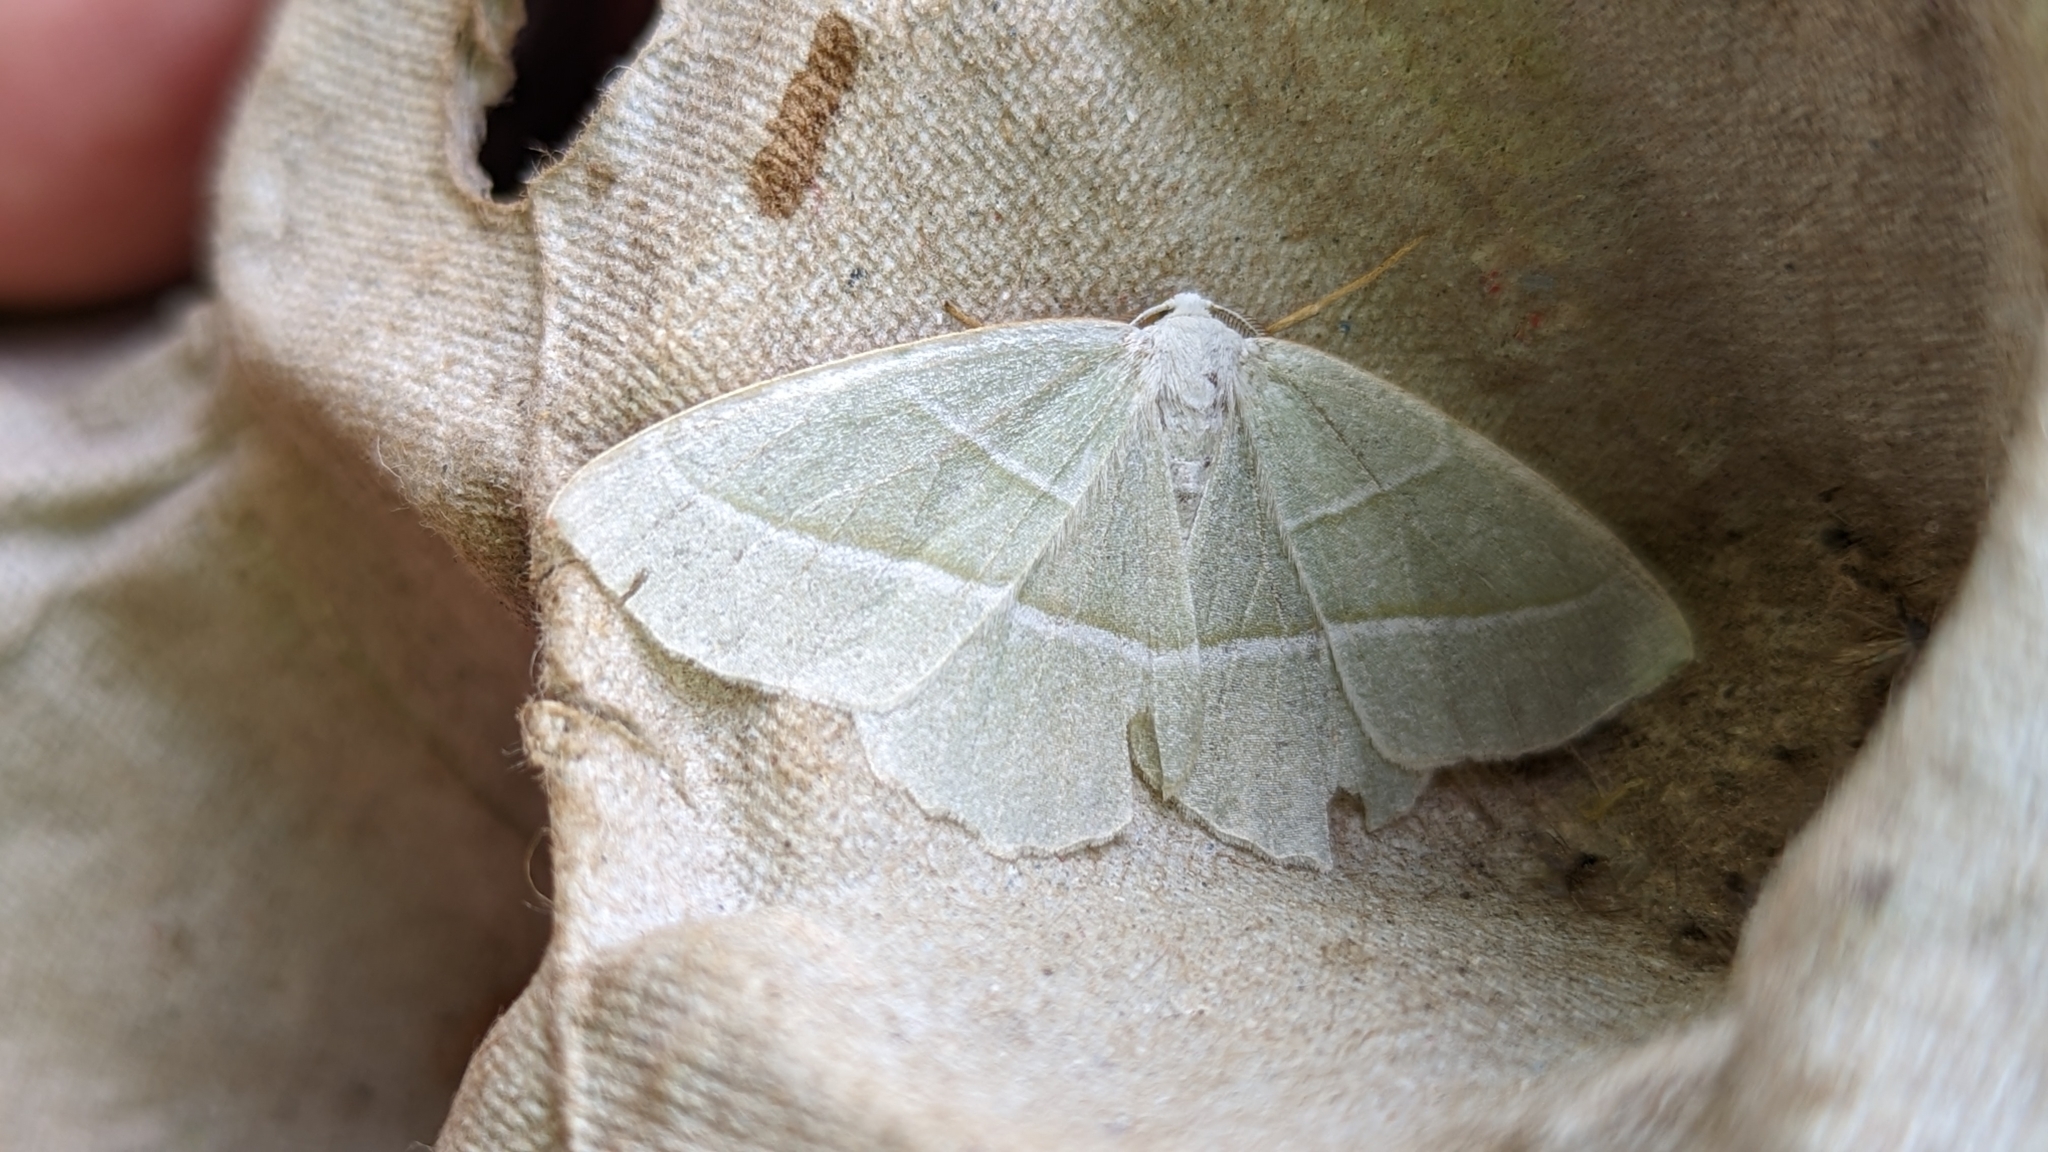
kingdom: Animalia
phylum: Arthropoda
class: Insecta
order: Lepidoptera
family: Geometridae
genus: Campaea
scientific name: Campaea margaritaria
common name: Light emerald
